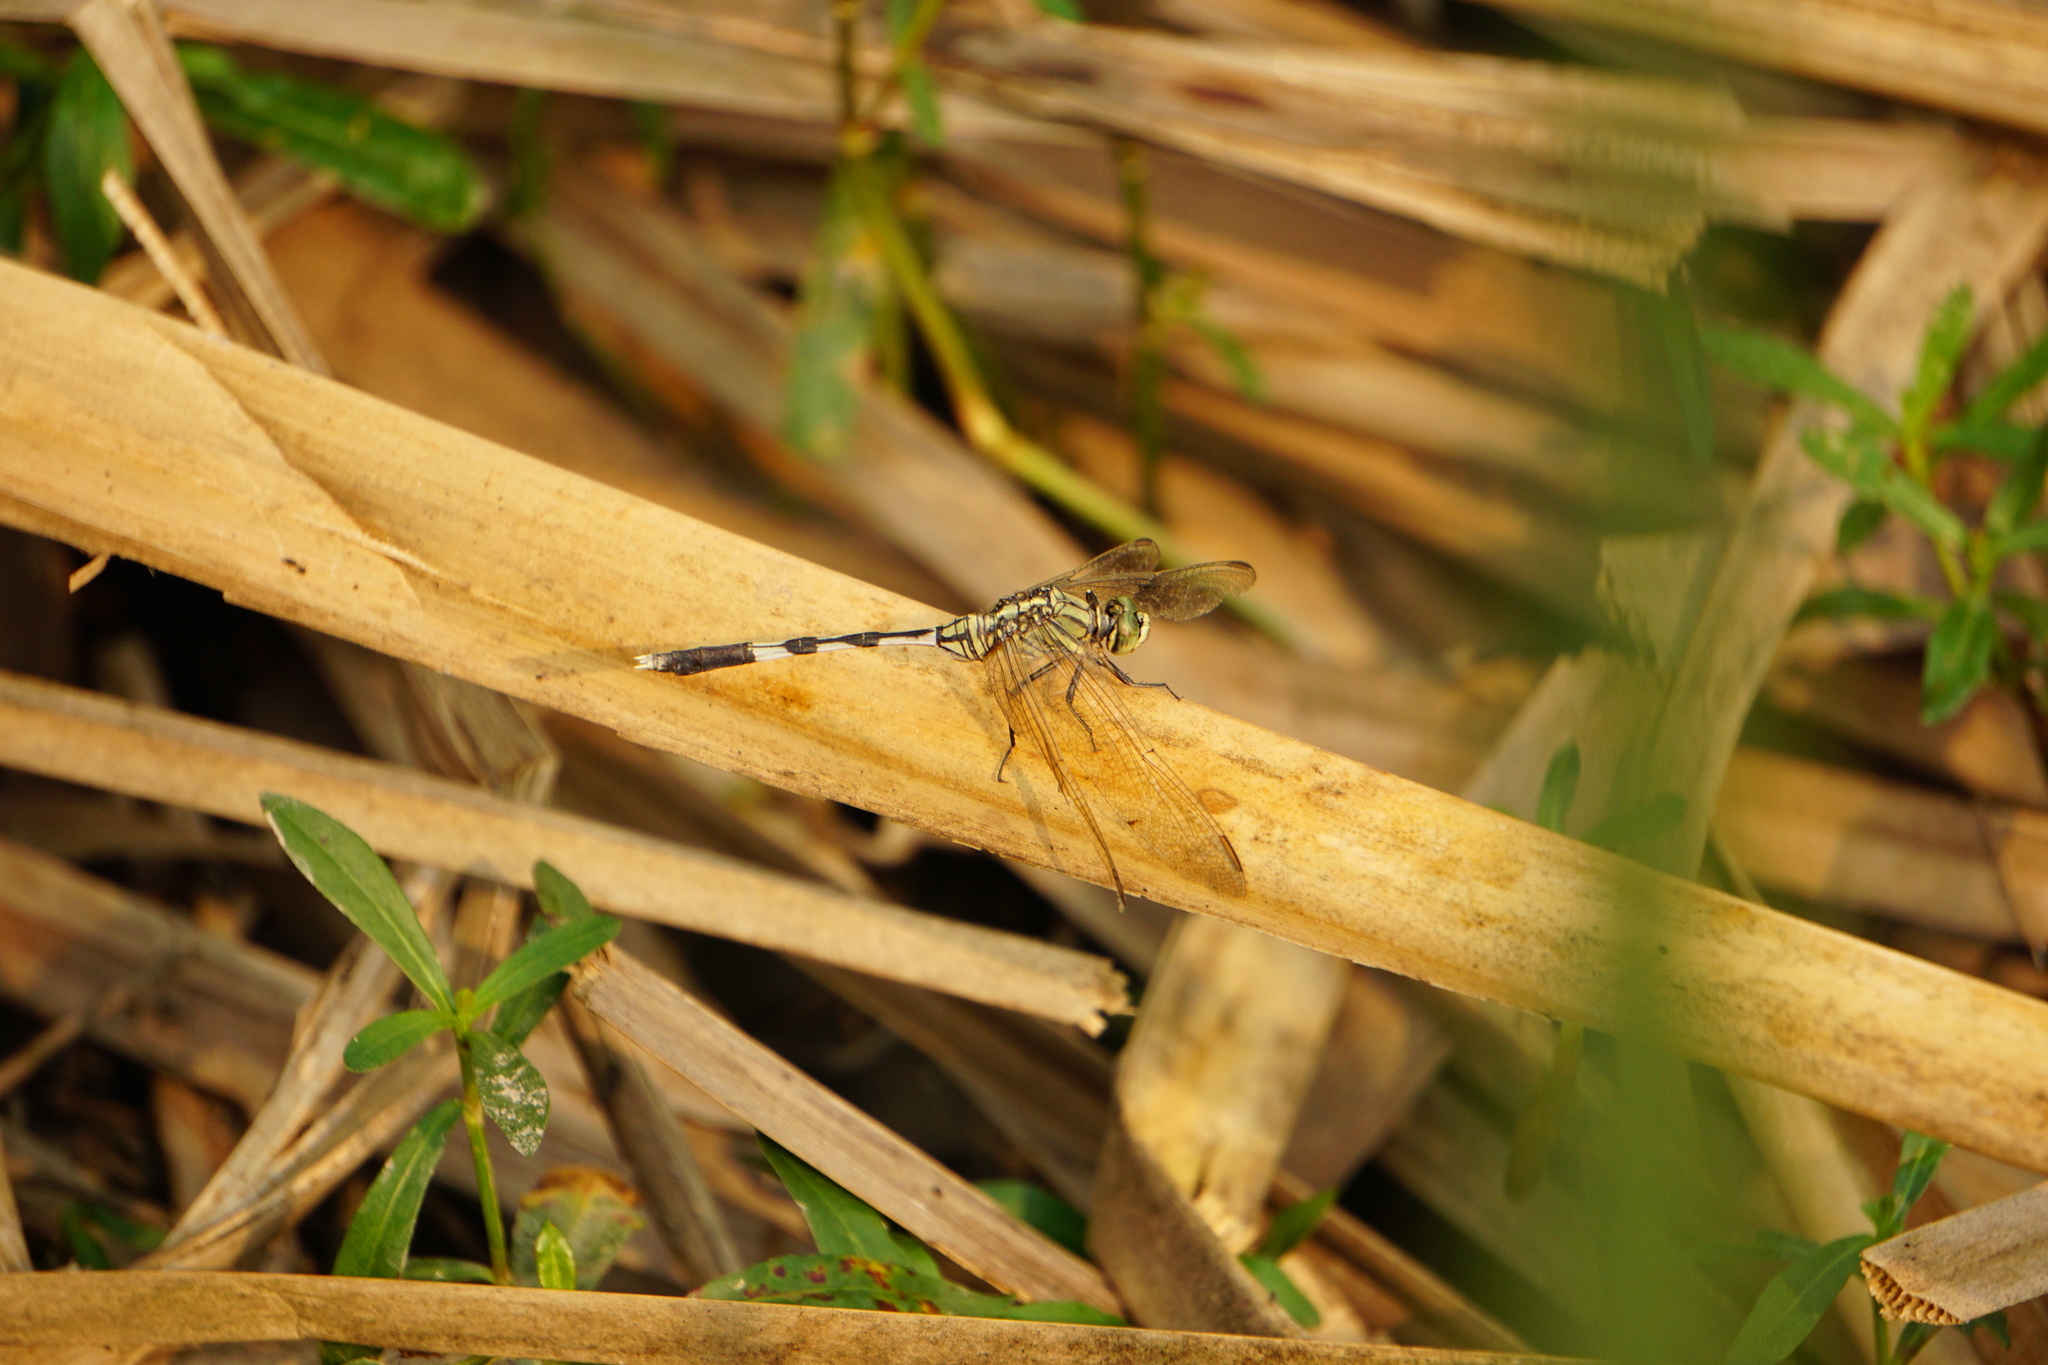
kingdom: Animalia
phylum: Arthropoda
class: Insecta
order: Odonata
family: Libellulidae
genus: Orthetrum
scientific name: Orthetrum sabina
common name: Slender skimmer
